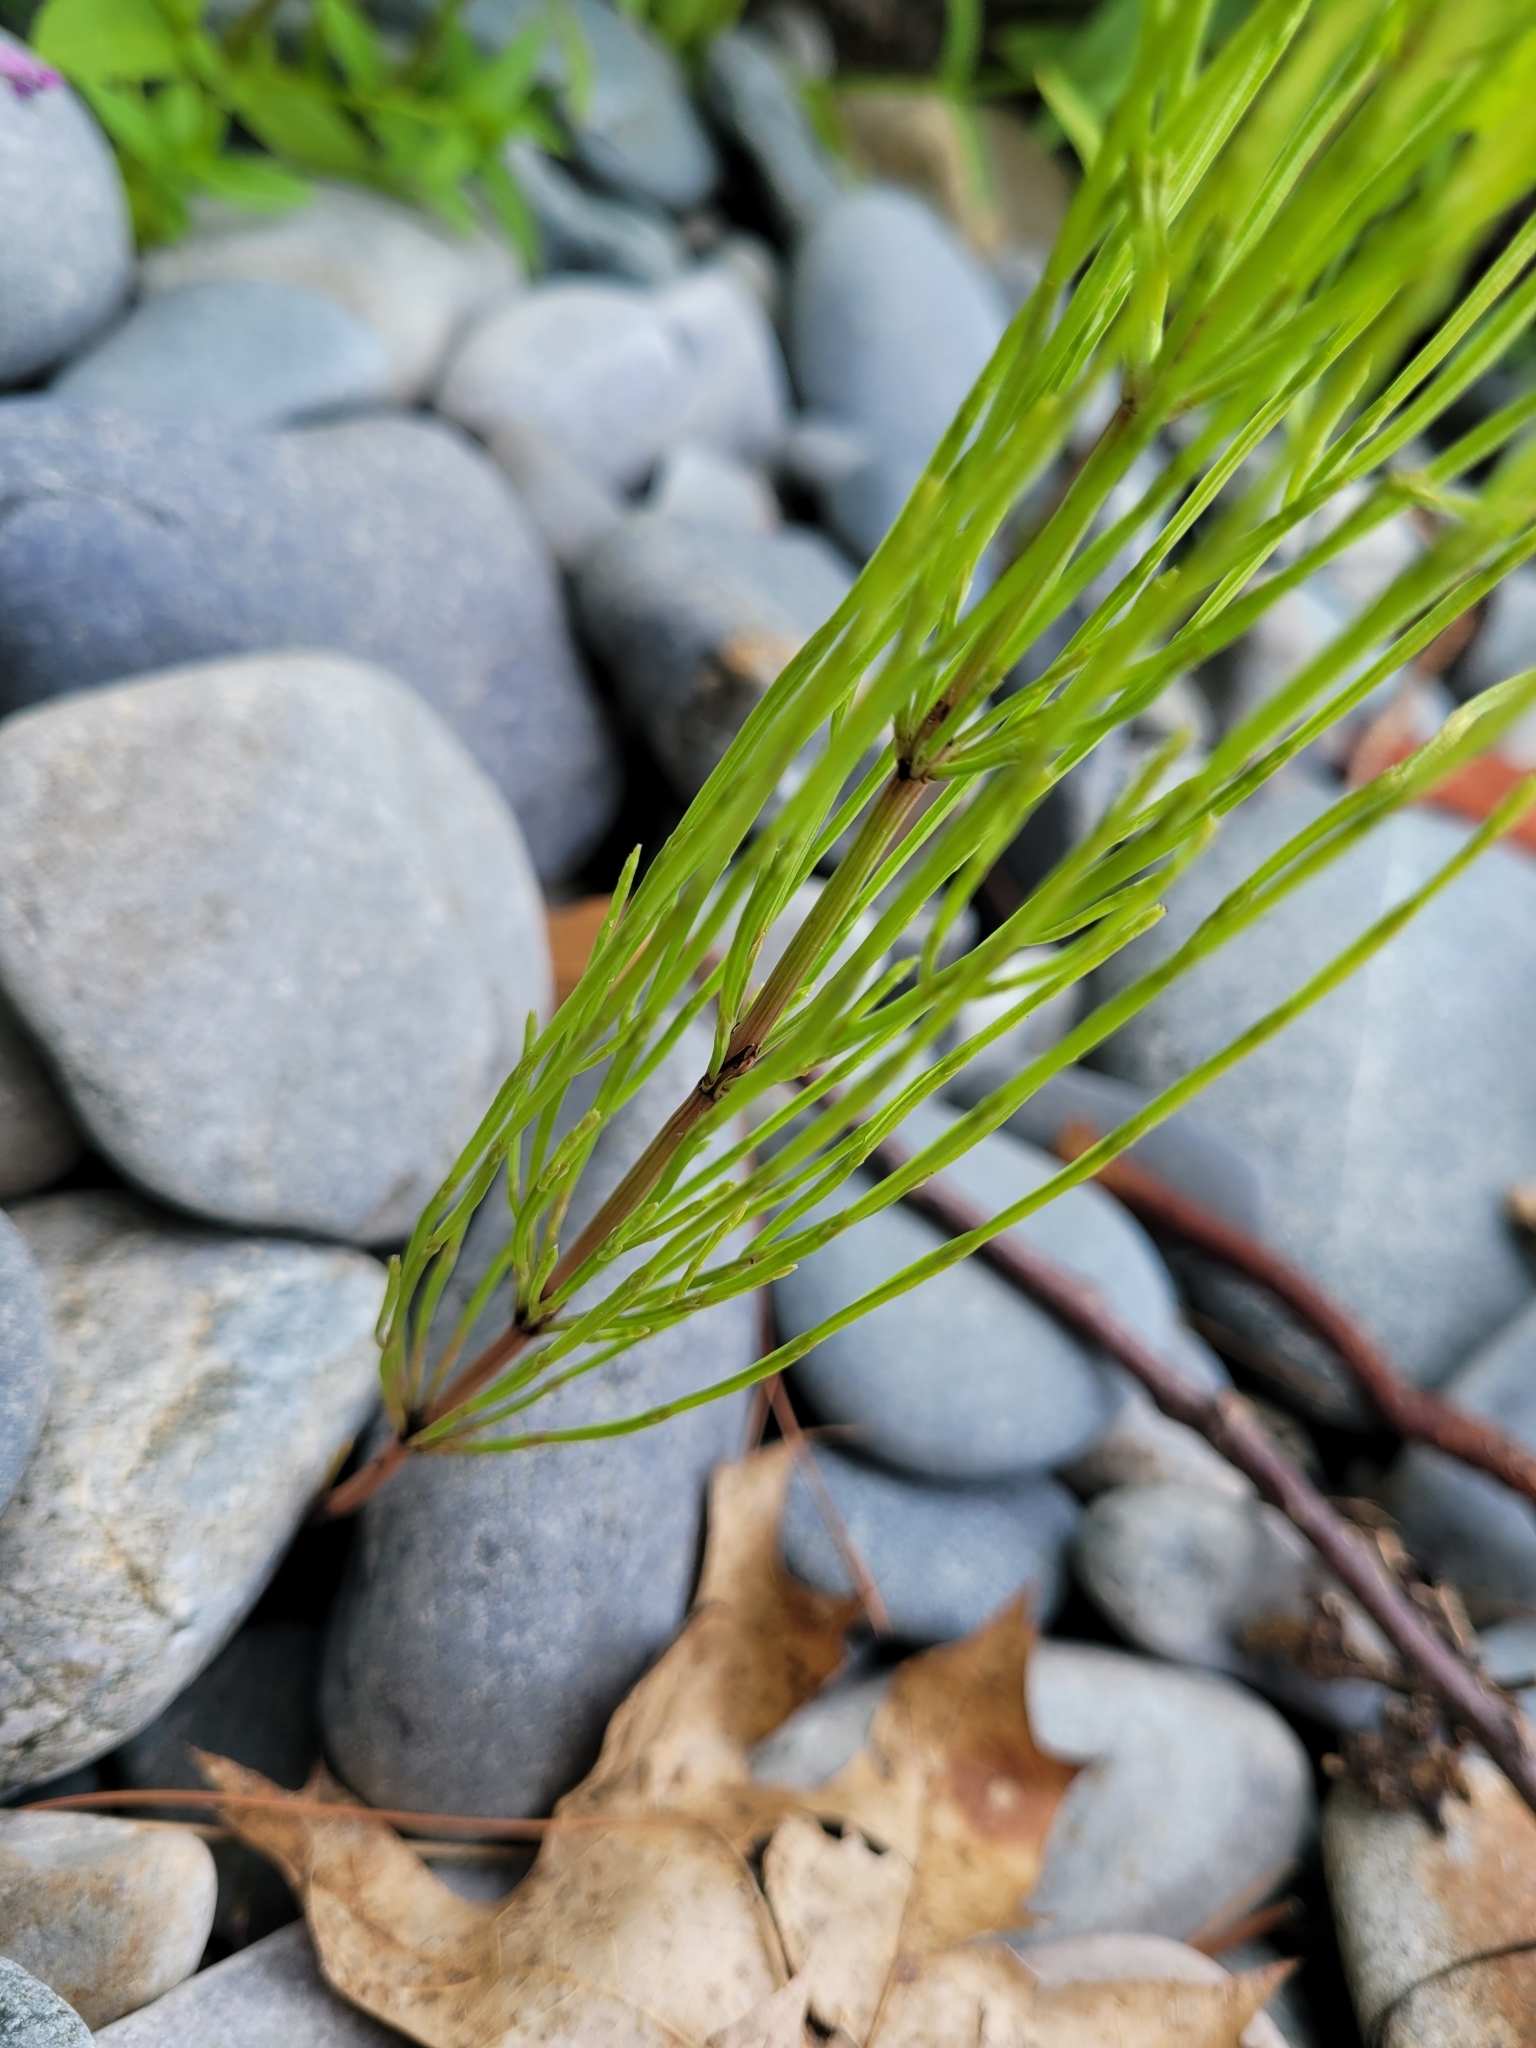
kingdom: Plantae
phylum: Tracheophyta
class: Polypodiopsida
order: Equisetales
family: Equisetaceae
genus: Equisetum
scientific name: Equisetum arvense
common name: Field horsetail
